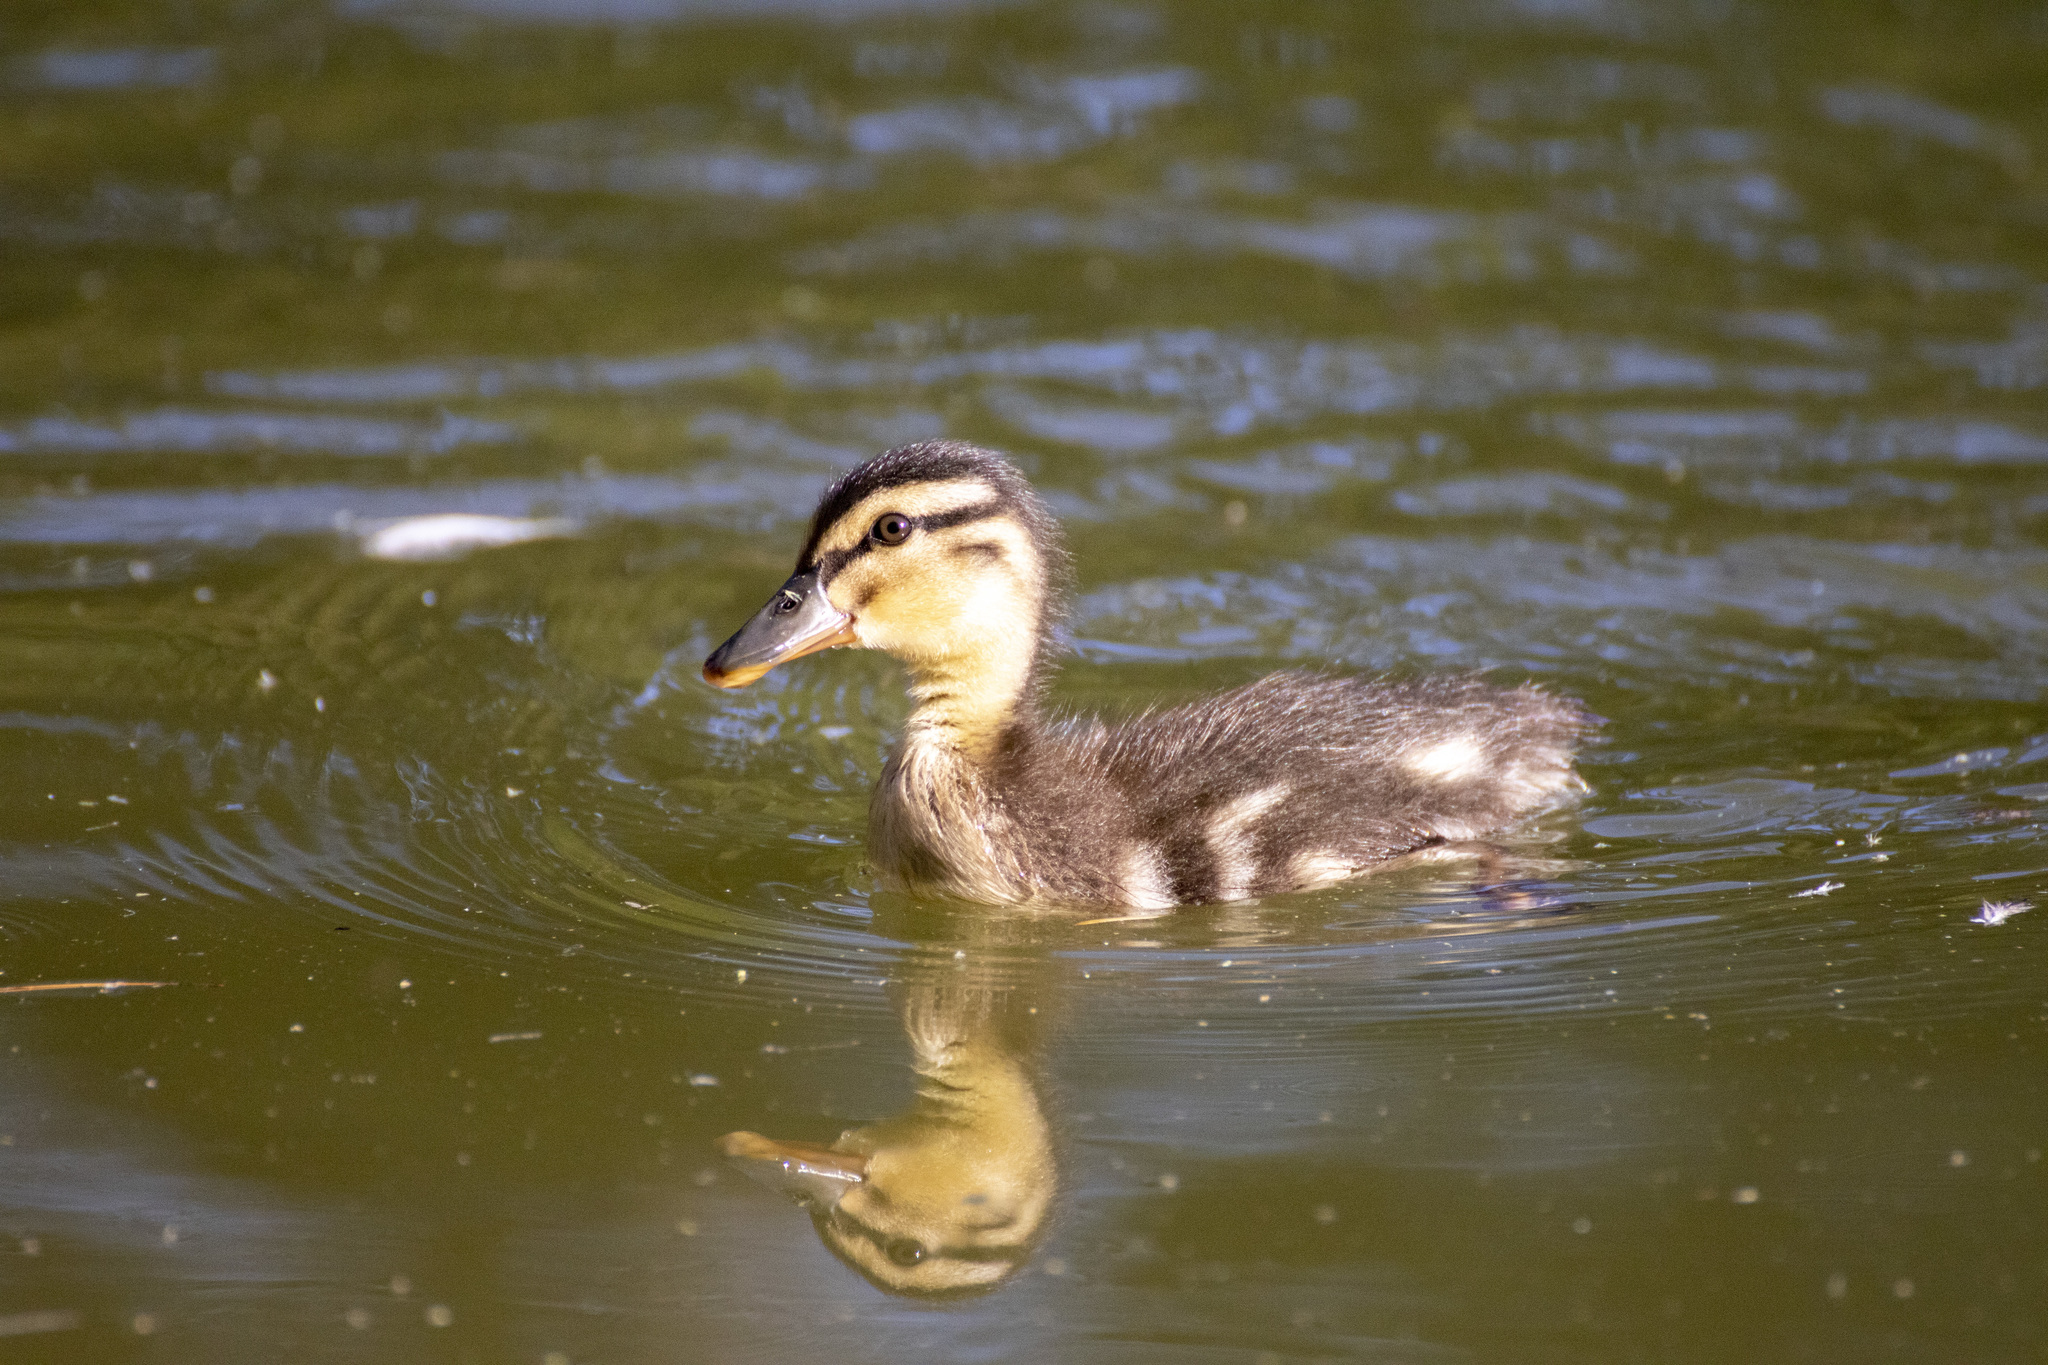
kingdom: Animalia
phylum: Chordata
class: Aves
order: Anseriformes
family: Anatidae
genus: Anas
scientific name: Anas platyrhynchos
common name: Mallard
